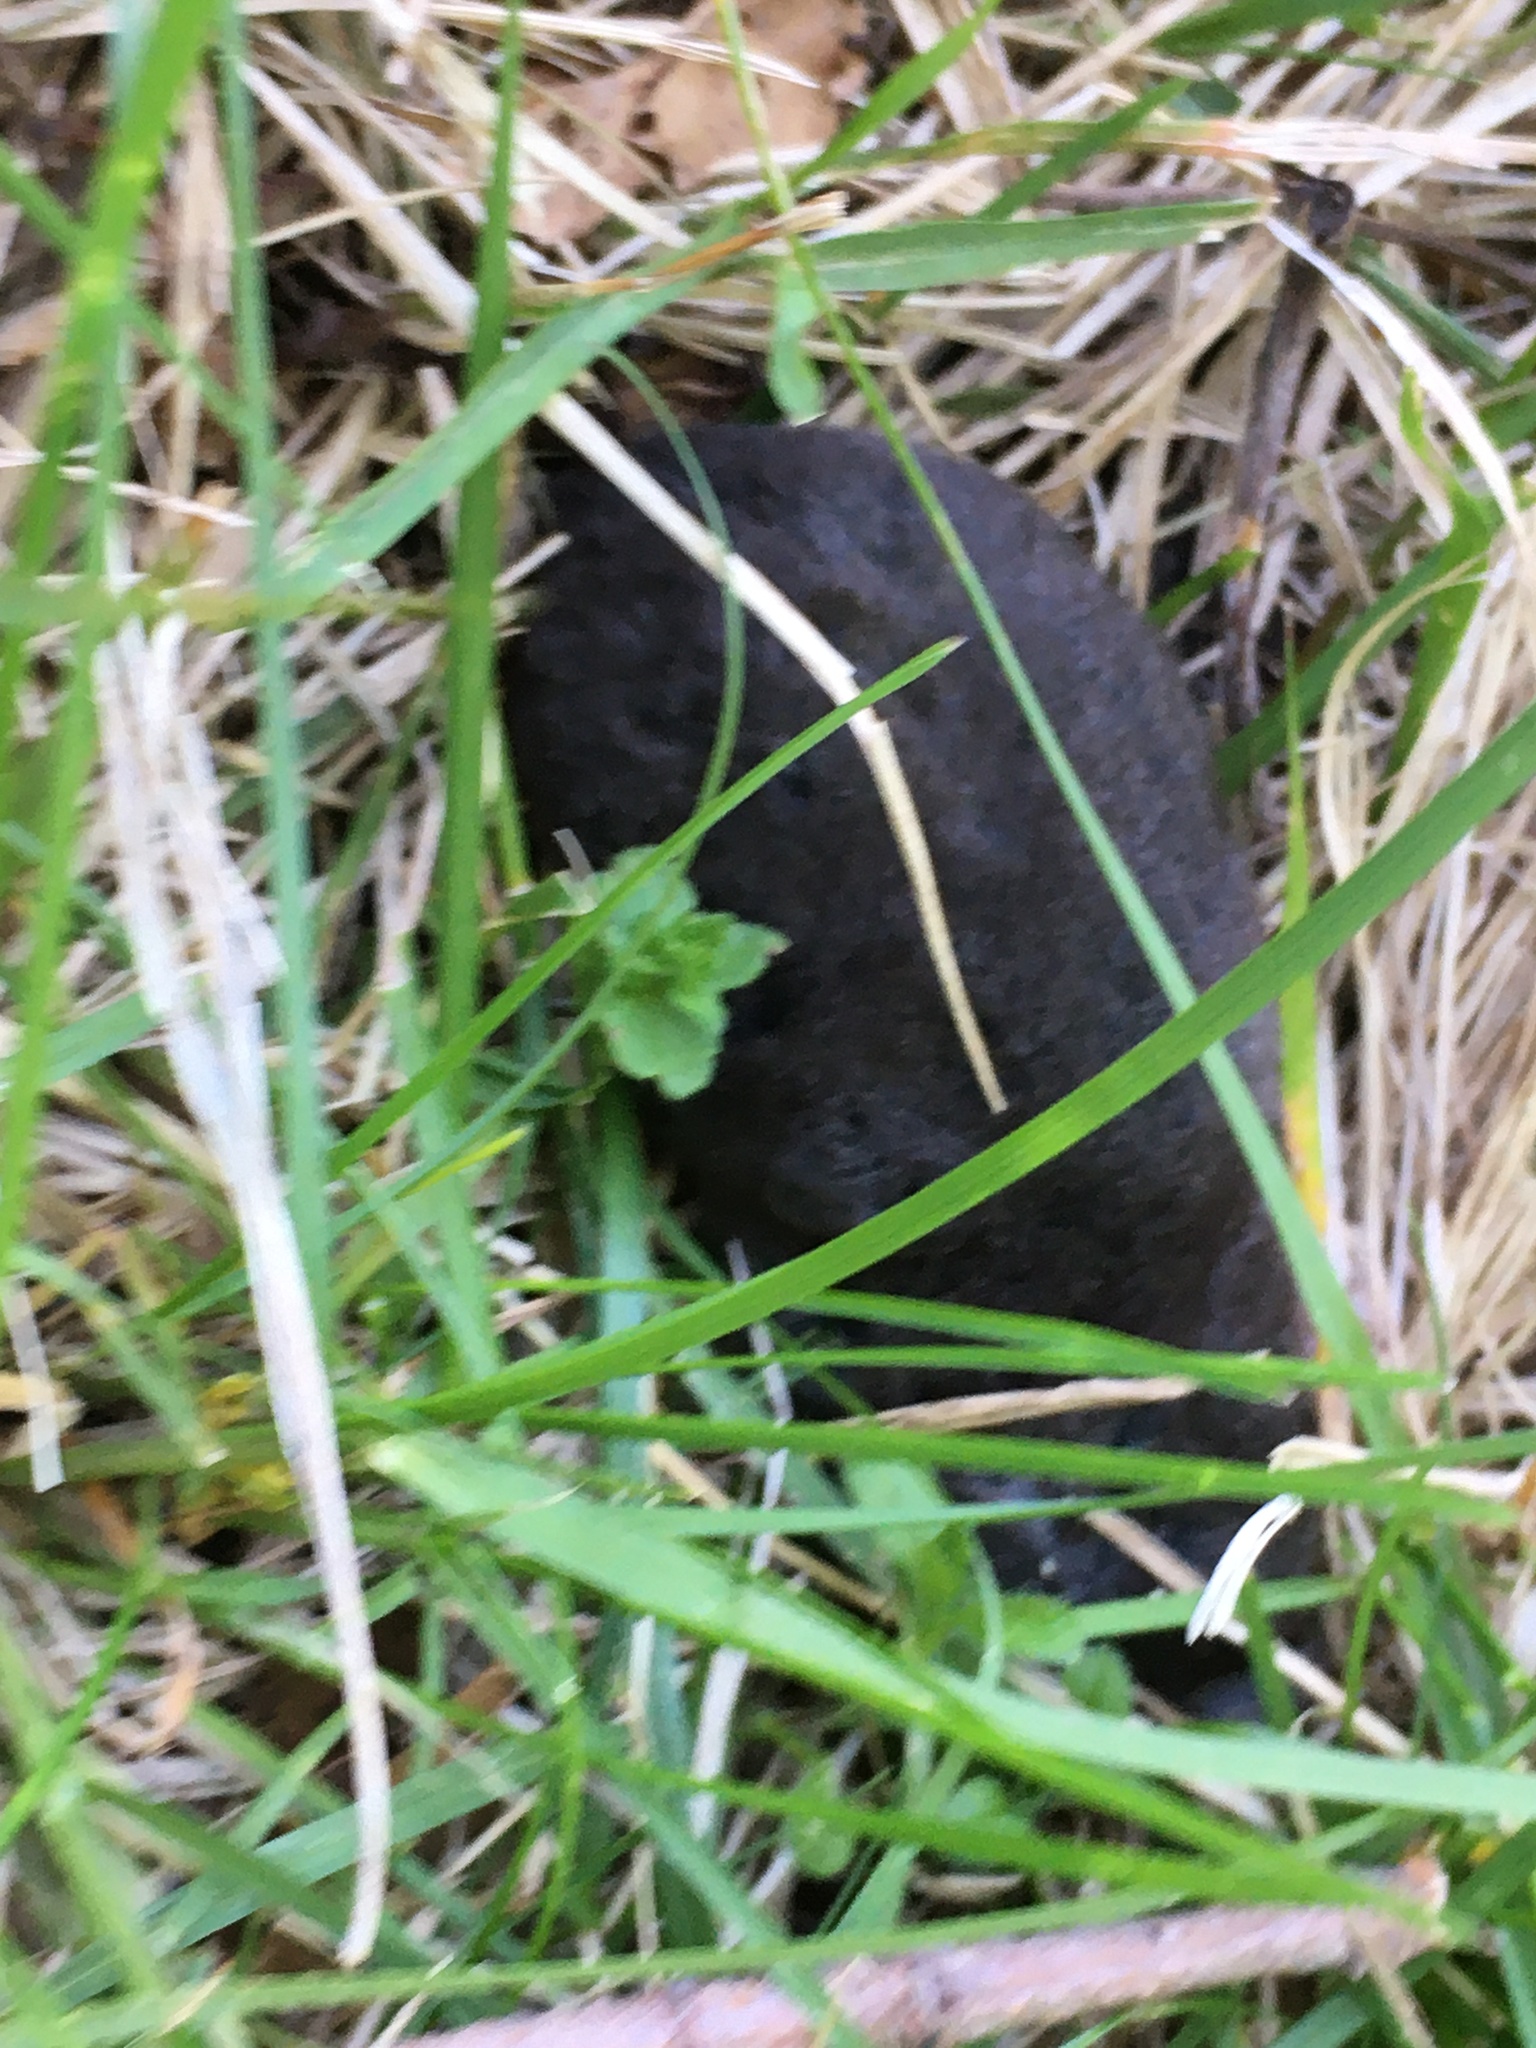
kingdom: Animalia
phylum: Chordata
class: Mammalia
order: Soricomorpha
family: Talpidae
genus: Condylura
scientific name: Condylura cristata
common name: Star-nosed mole
